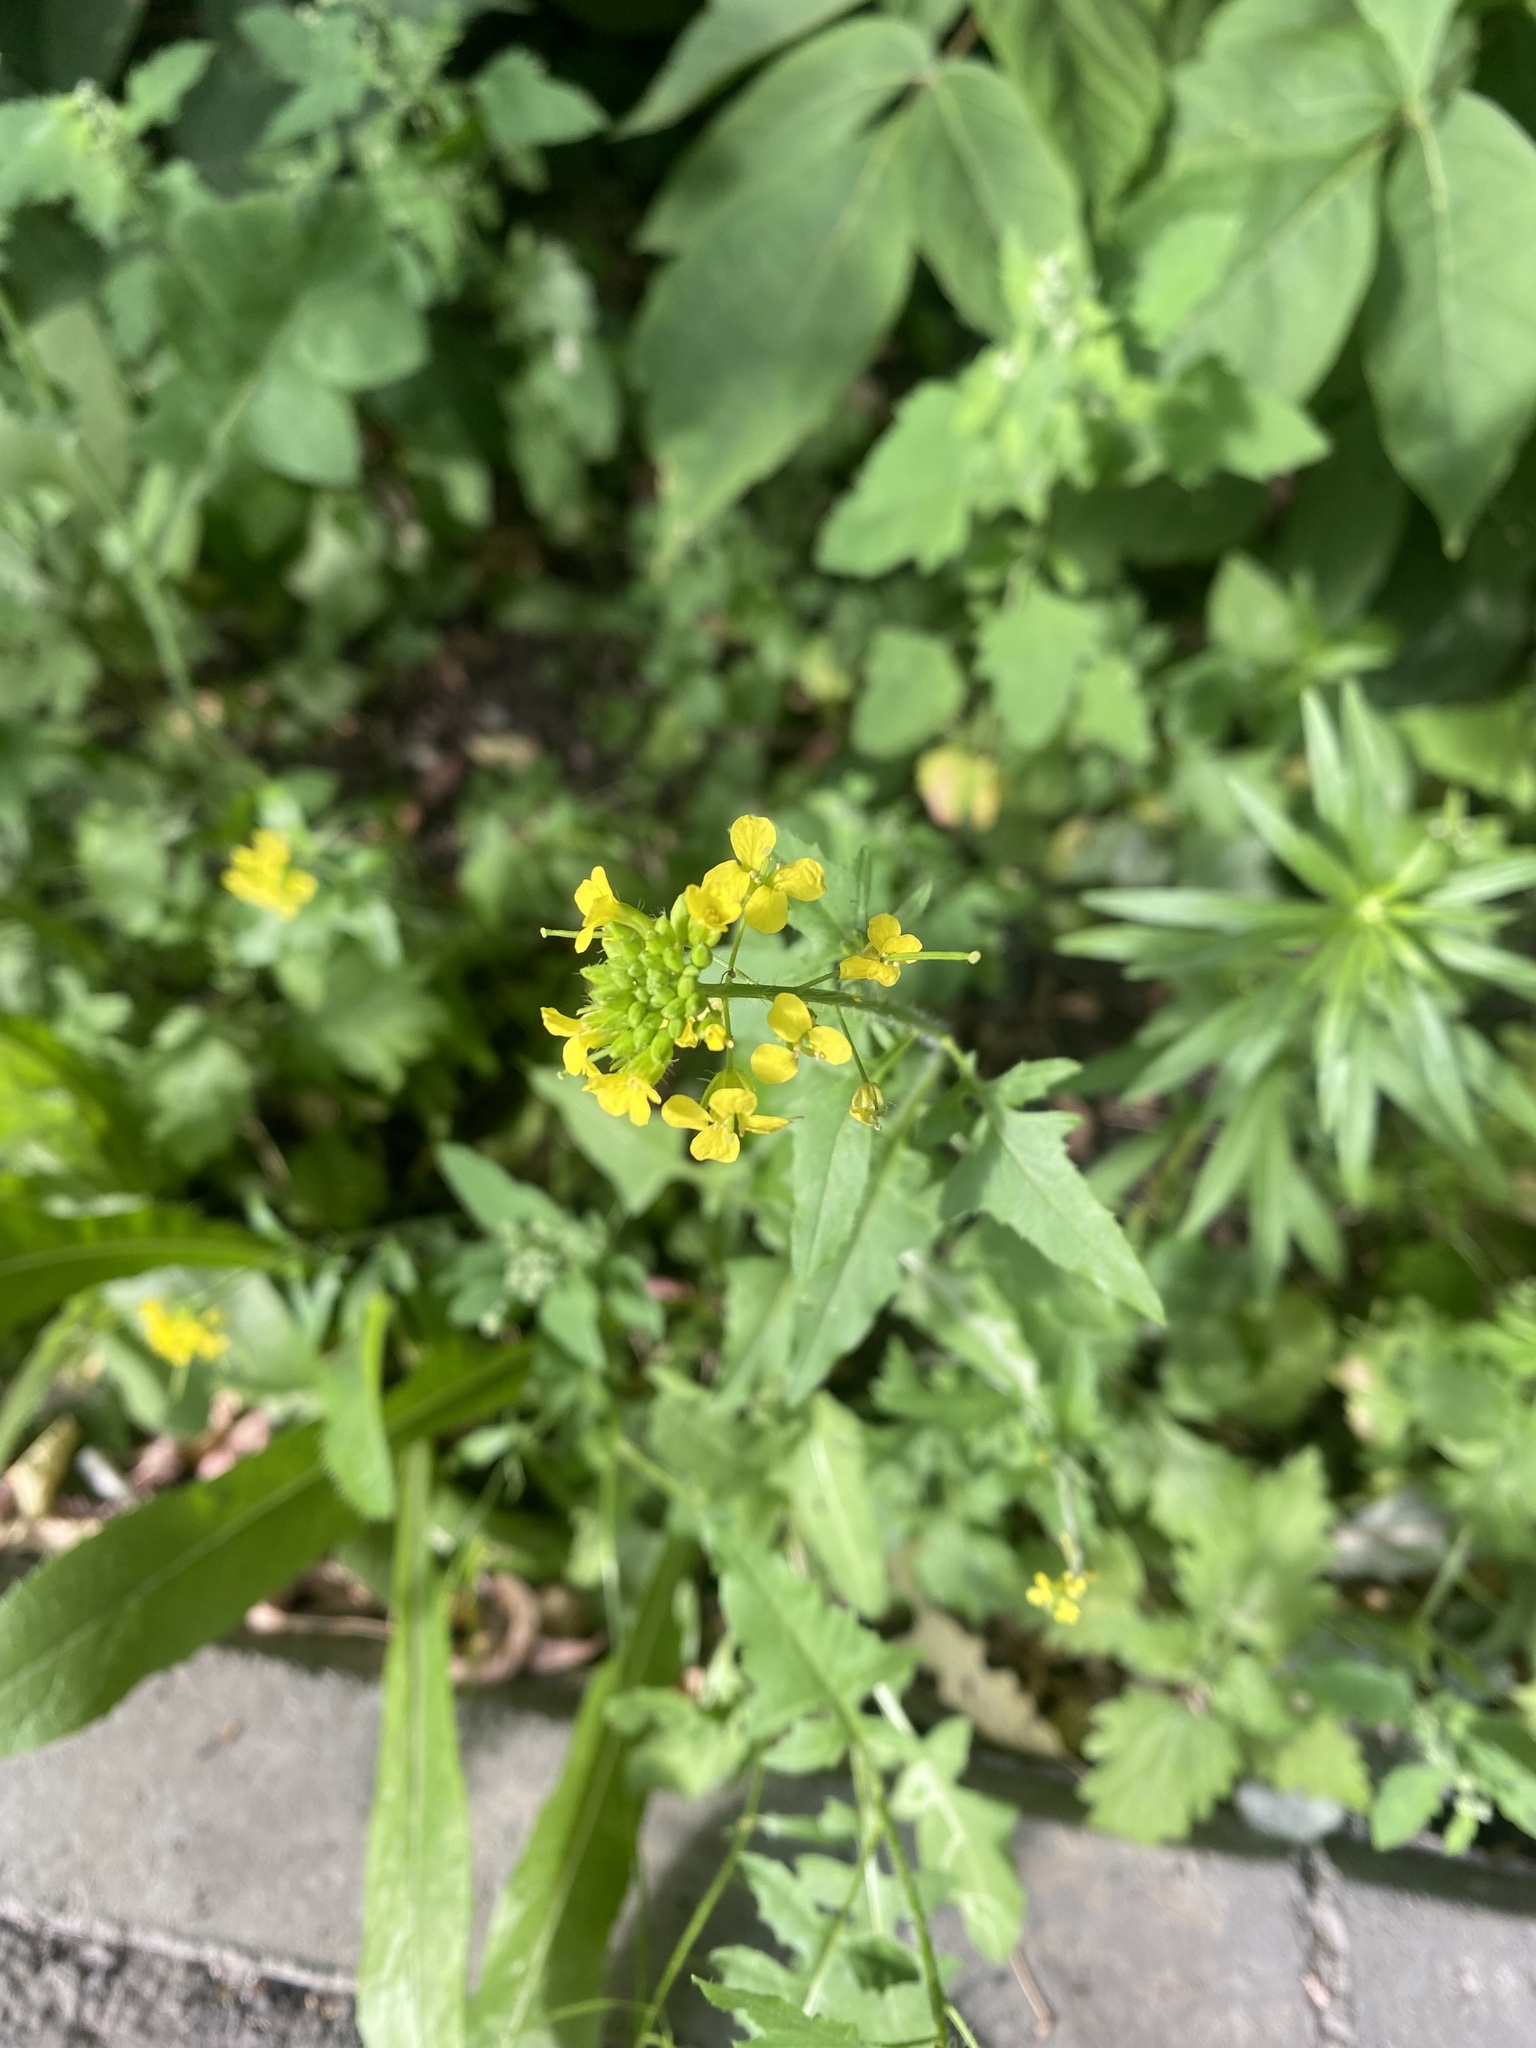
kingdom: Plantae
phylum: Tracheophyta
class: Magnoliopsida
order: Brassicales
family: Brassicaceae
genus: Sisymbrium
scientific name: Sisymbrium loeselii
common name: False london-rocket
